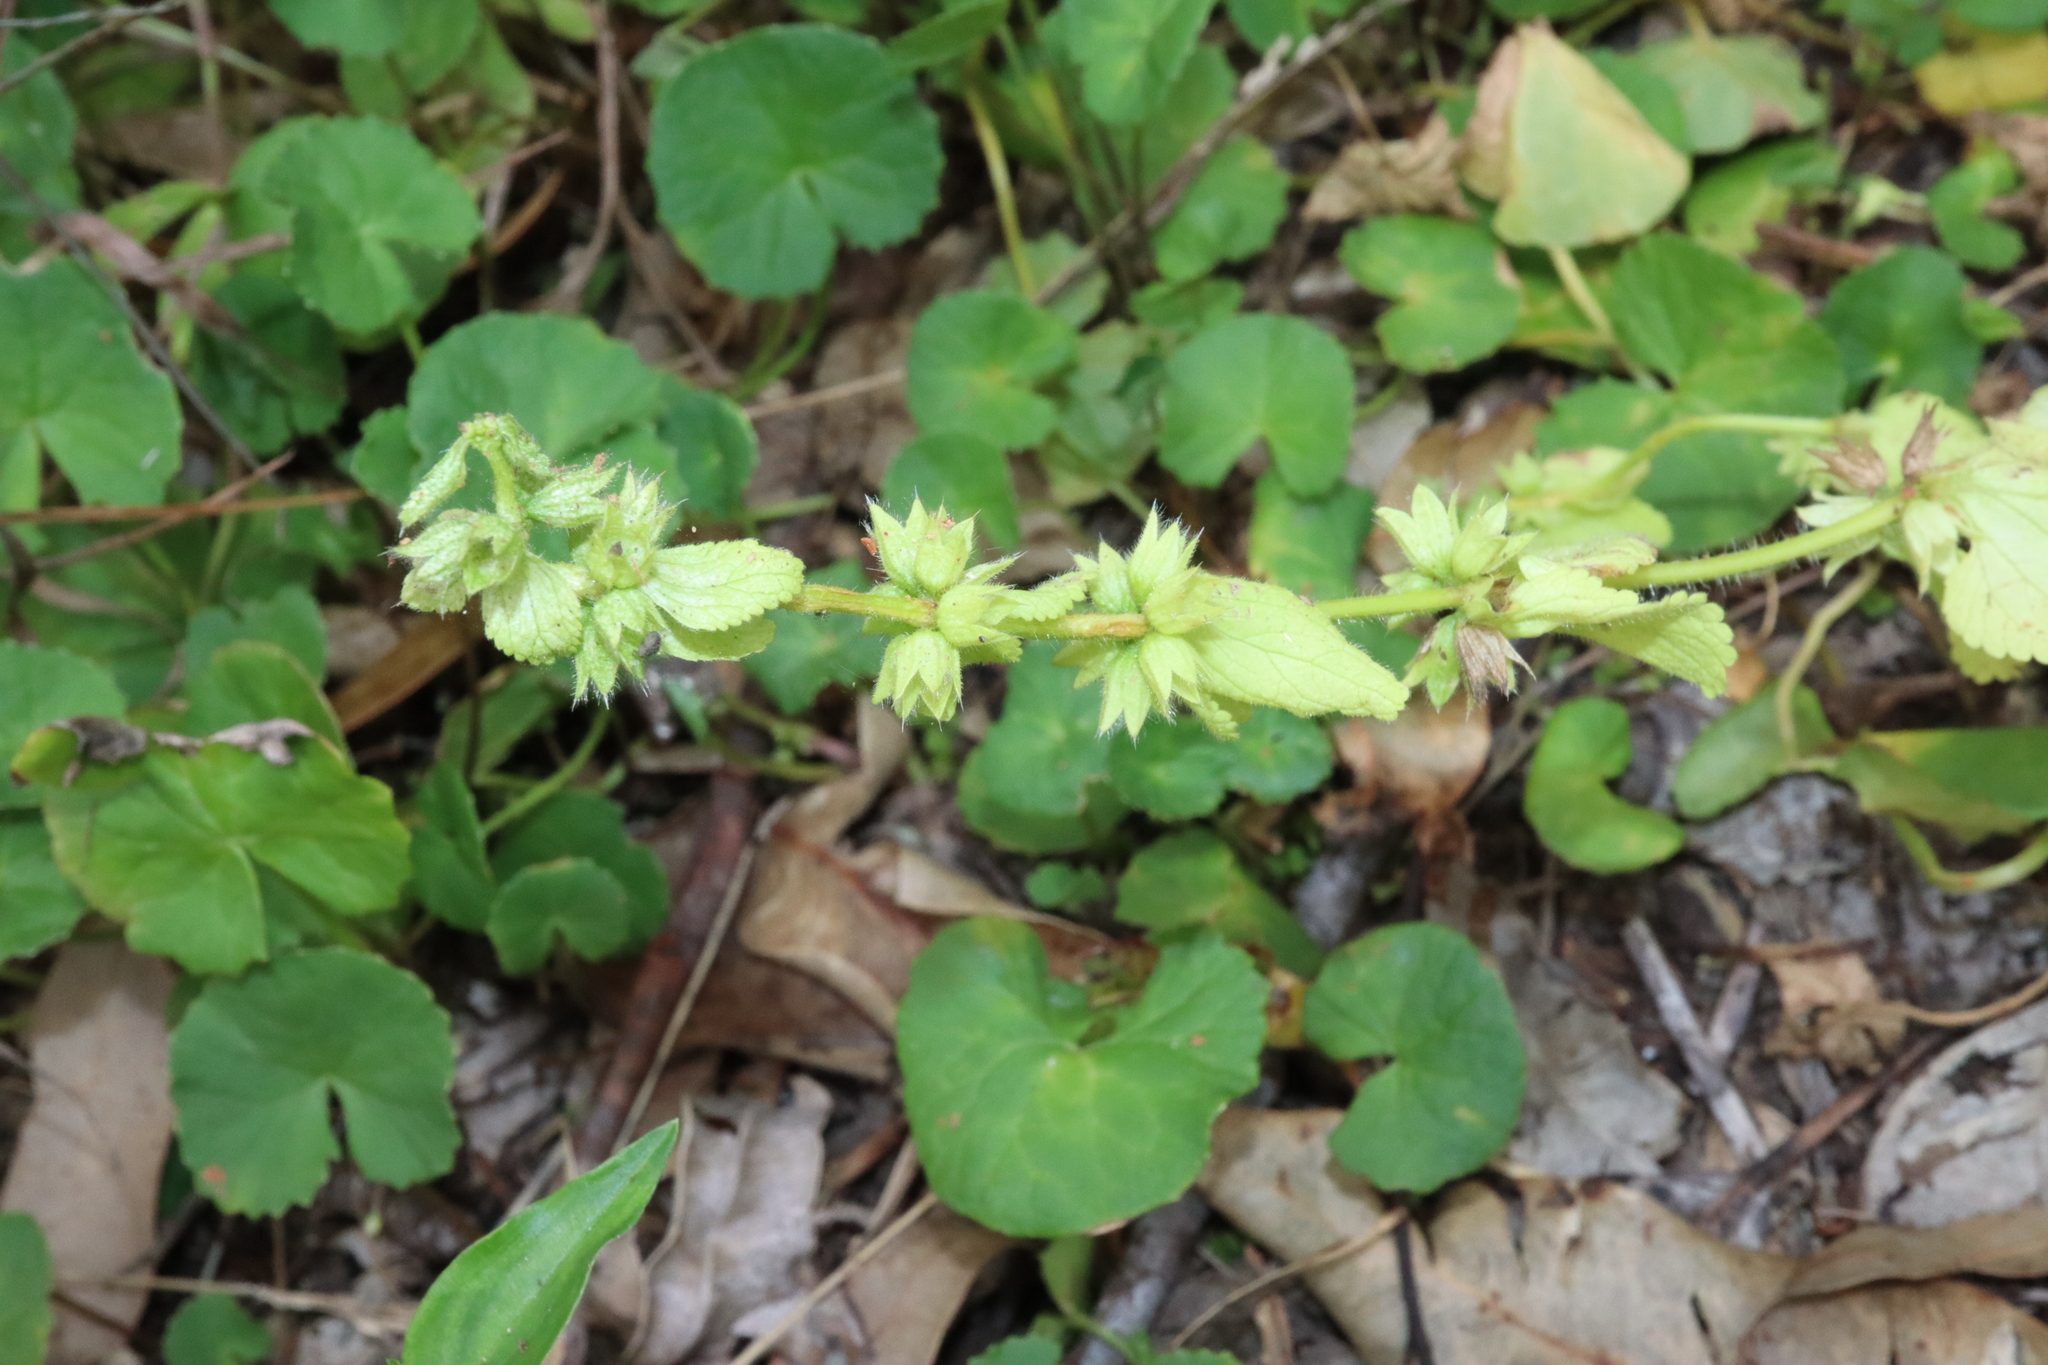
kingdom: Plantae
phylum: Tracheophyta
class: Magnoliopsida
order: Lamiales
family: Lamiaceae
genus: Stachys
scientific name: Stachys arvensis
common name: Field woundwort
